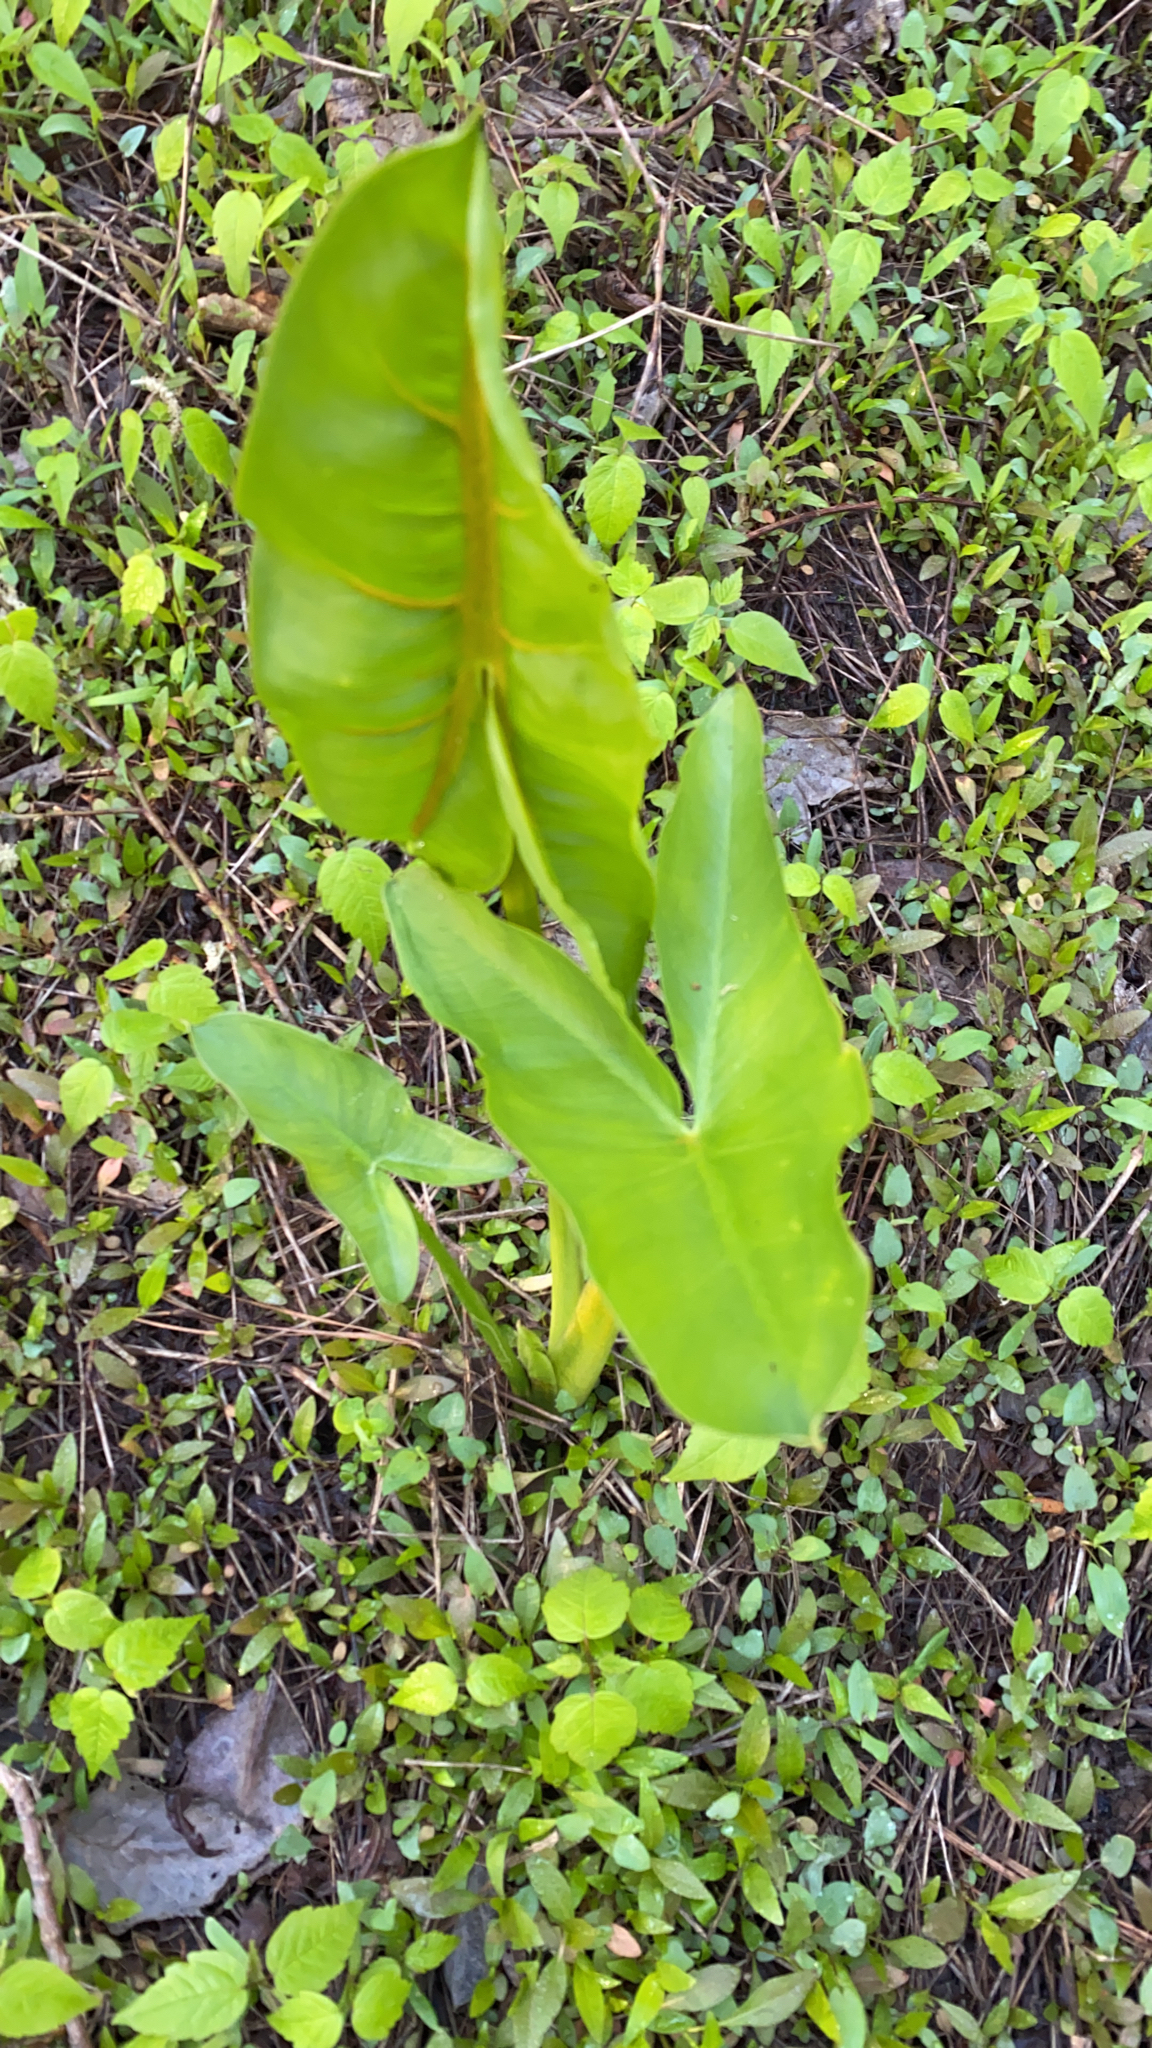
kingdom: Plantae
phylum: Tracheophyta
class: Liliopsida
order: Alismatales
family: Araceae
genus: Peltandra
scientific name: Peltandra virginica
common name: Arrow arum
